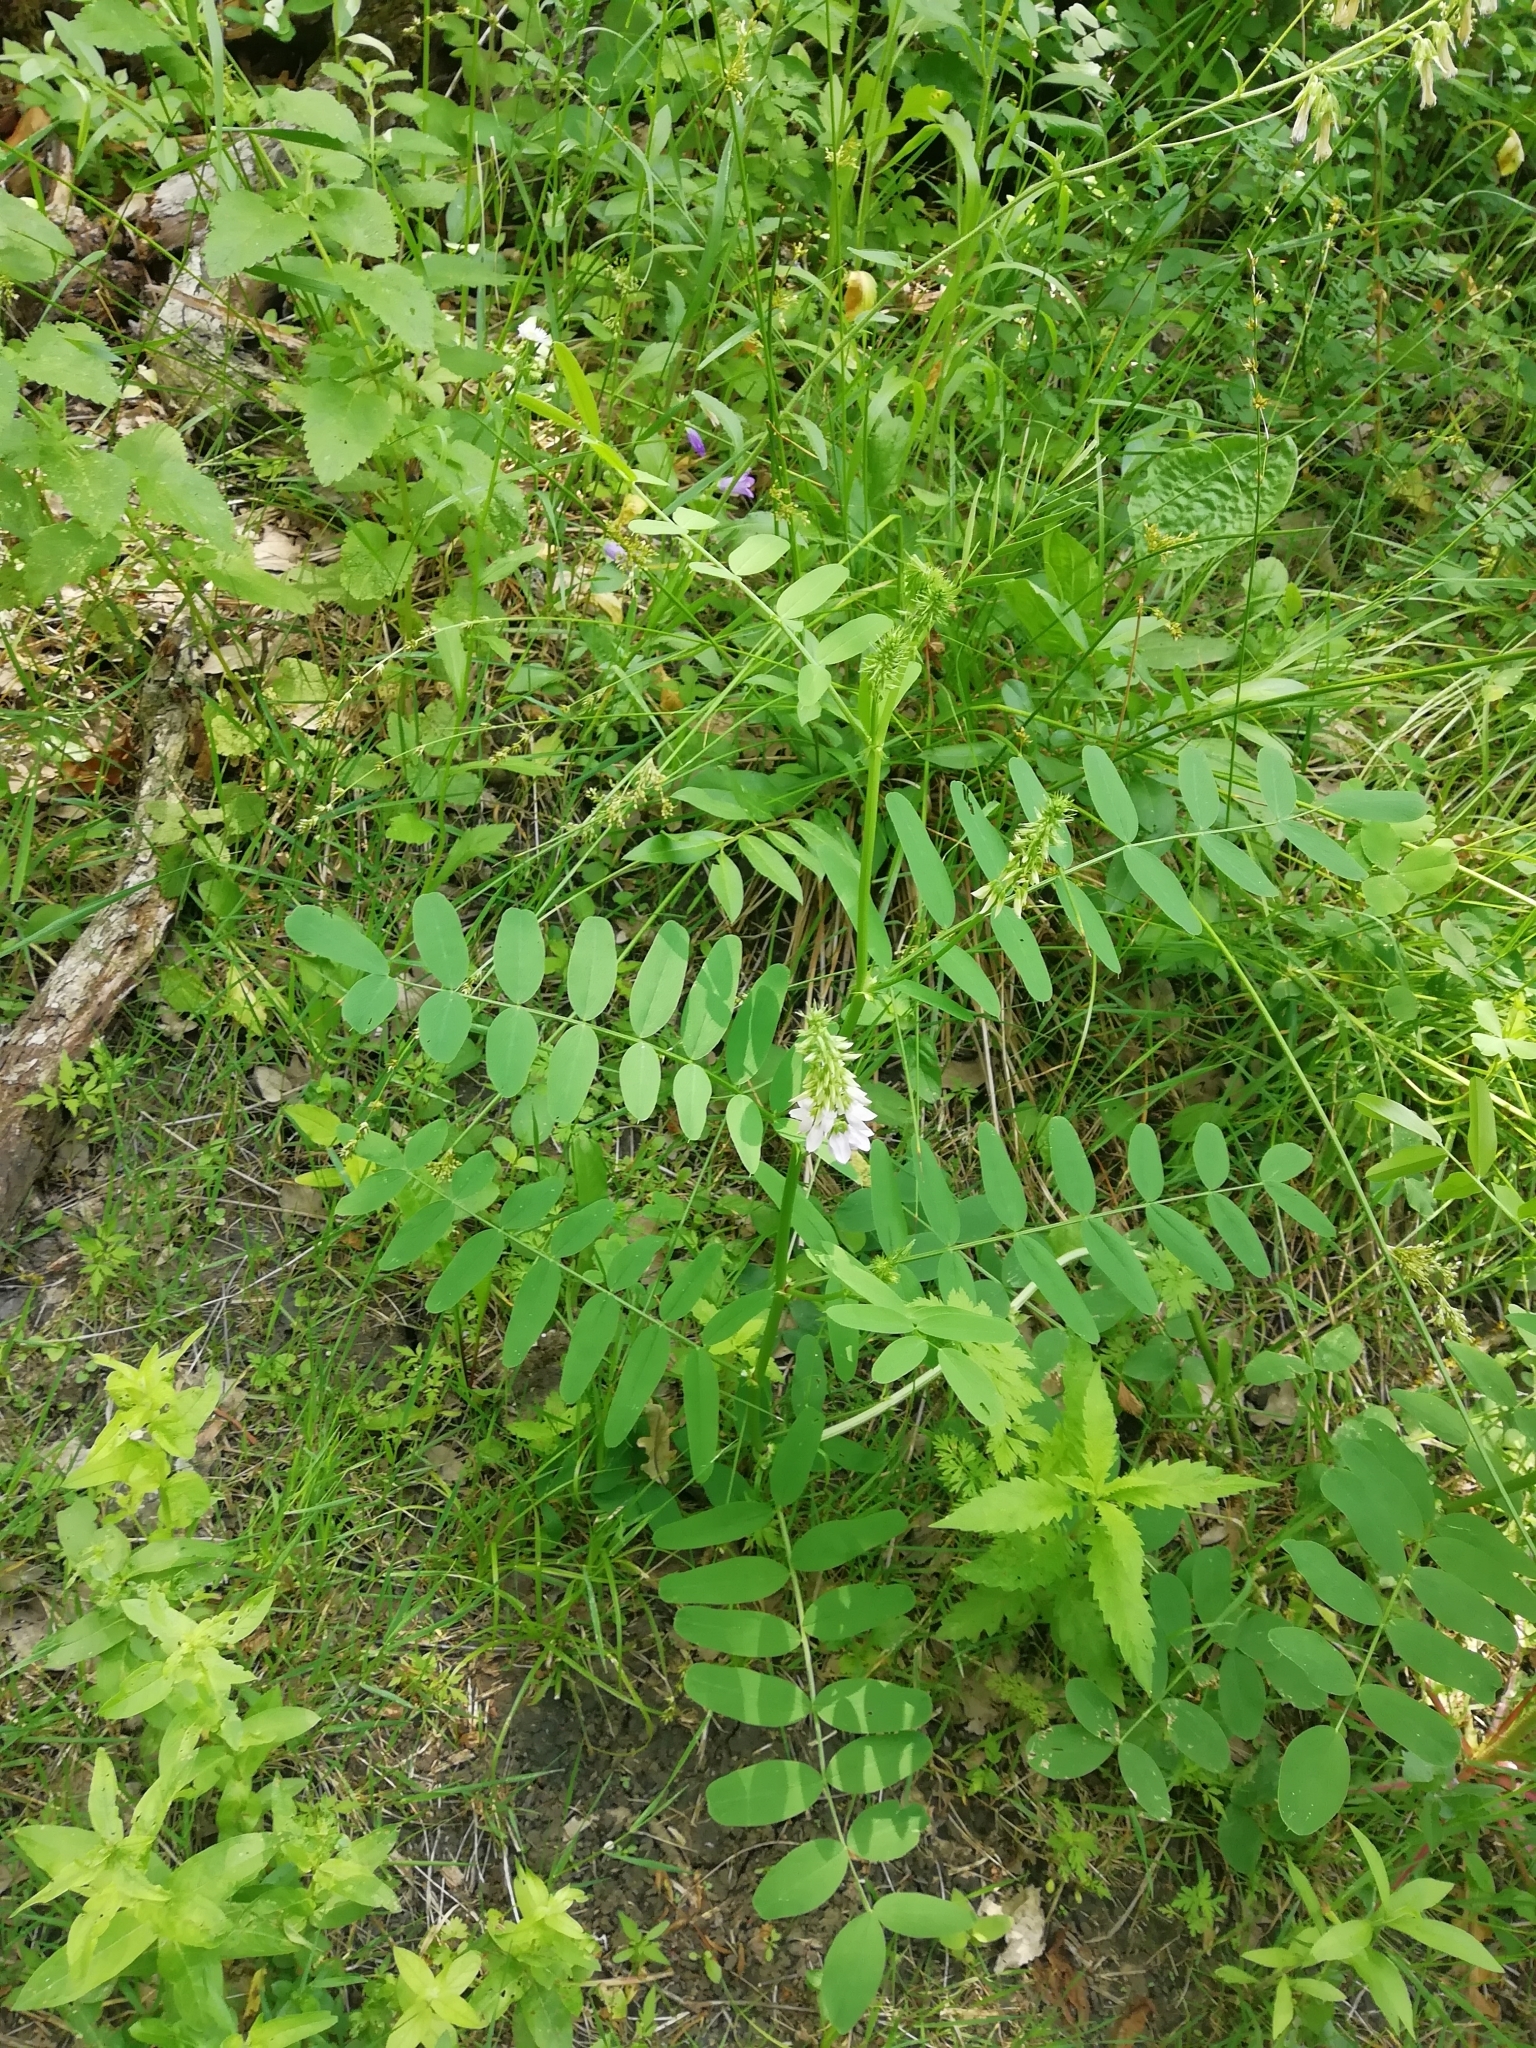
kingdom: Plantae
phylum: Tracheophyta
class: Magnoliopsida
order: Fabales
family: Fabaceae
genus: Galega
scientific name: Galega officinalis
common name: Goat's-rue
